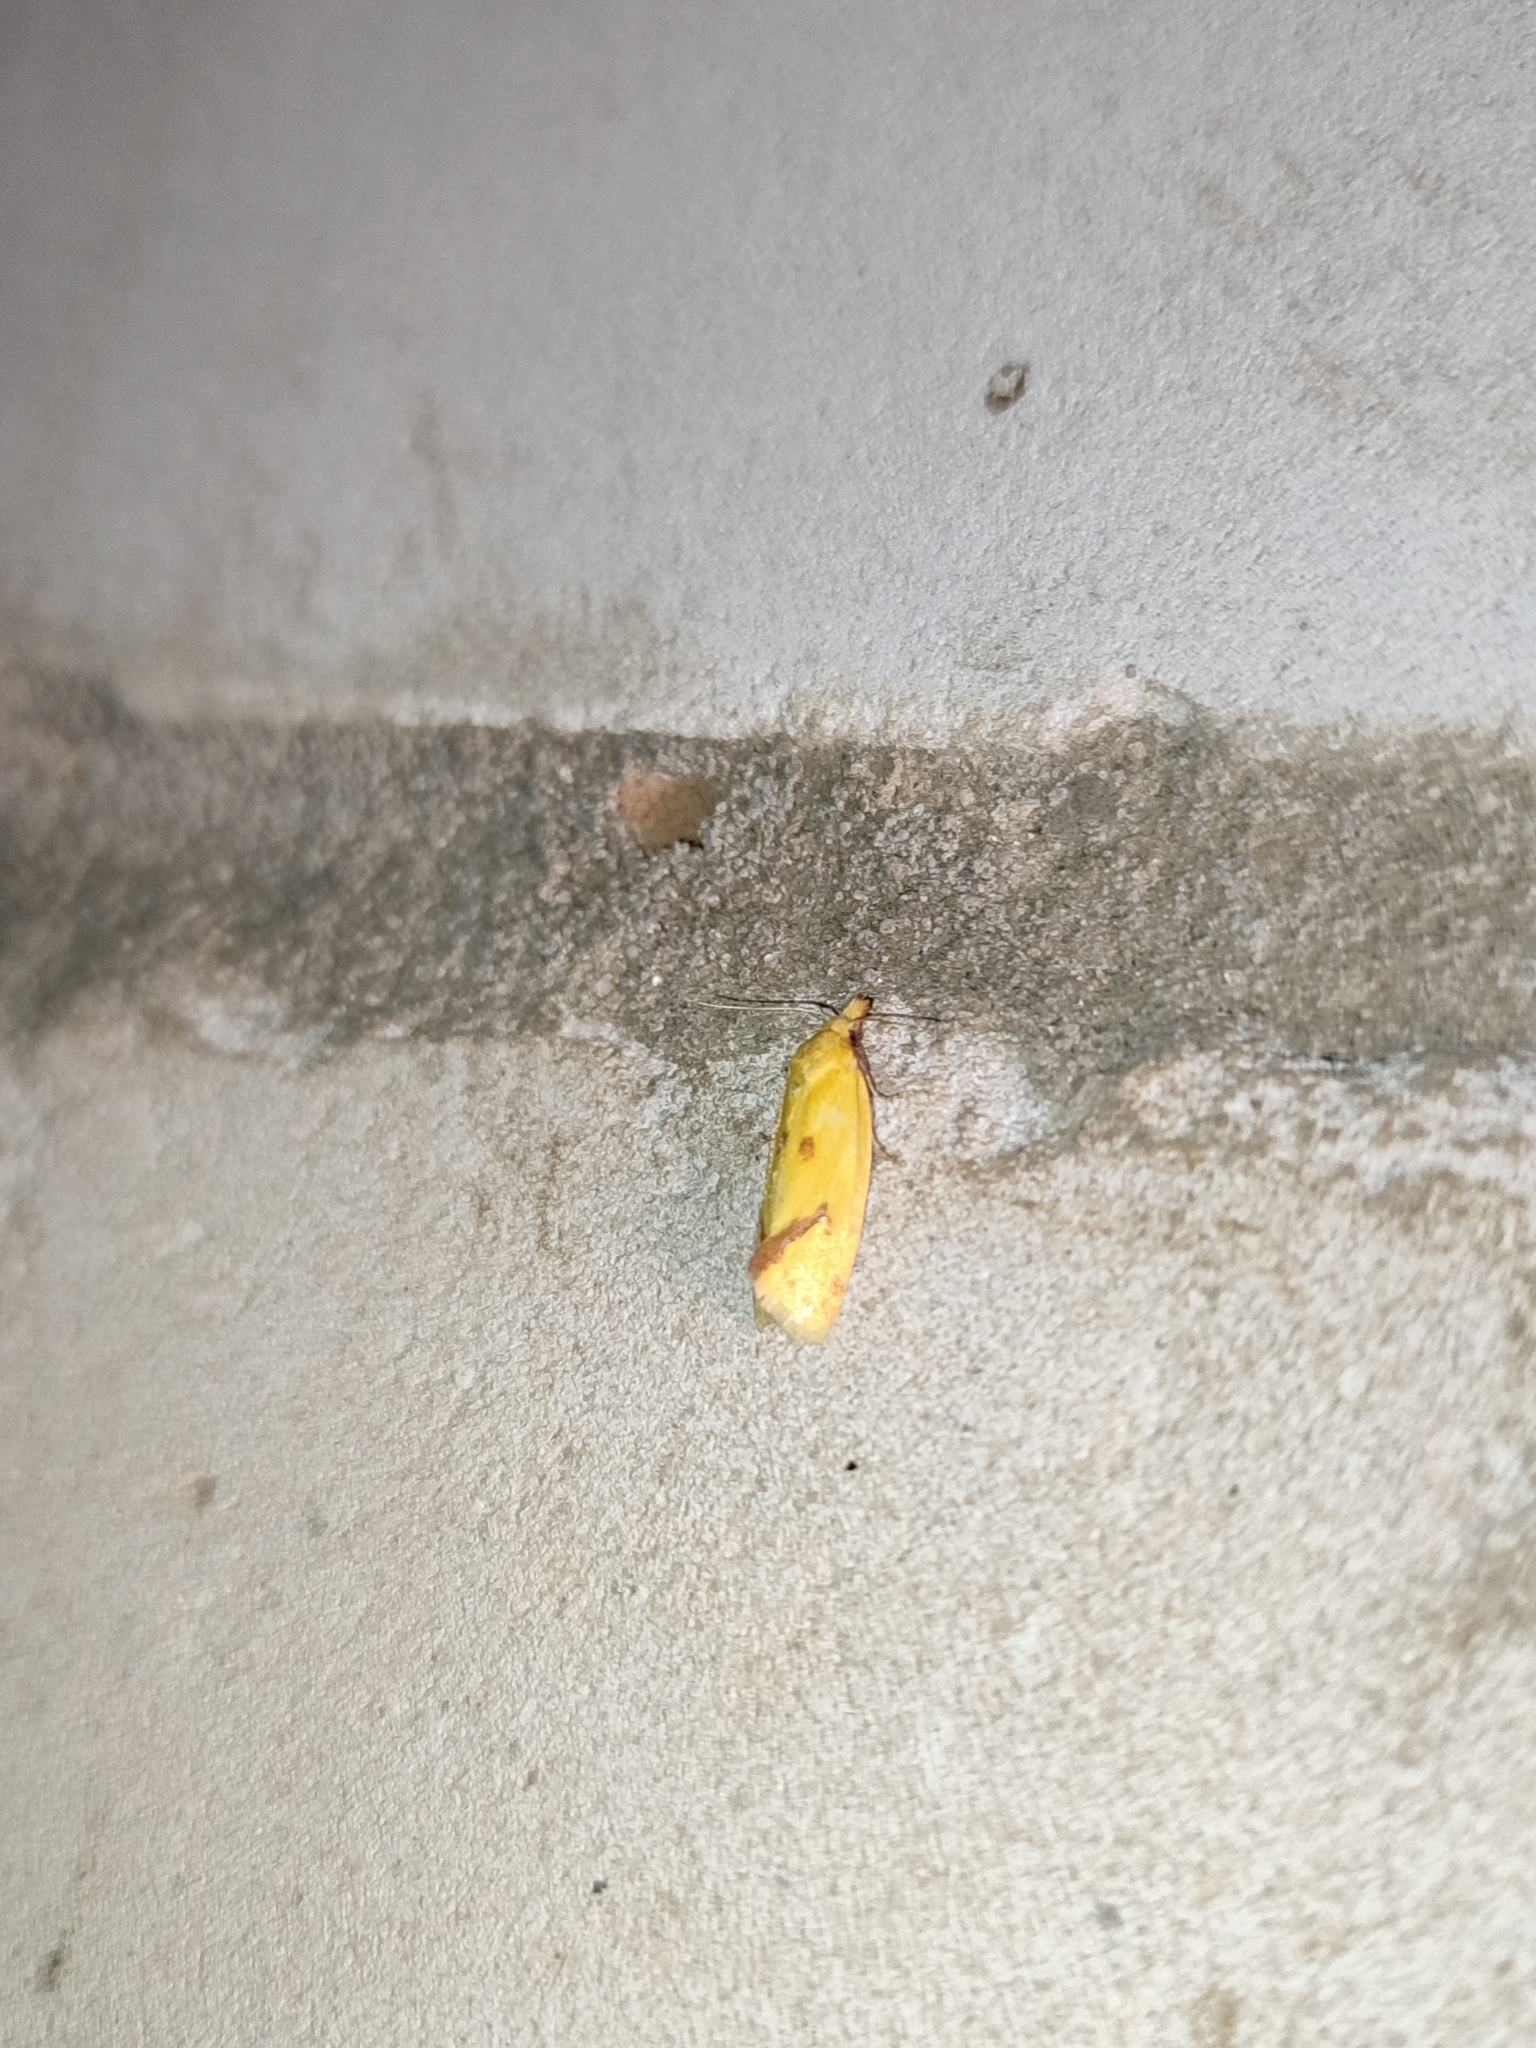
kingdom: Animalia
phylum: Arthropoda
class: Insecta
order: Lepidoptera
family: Tortricidae
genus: Agapeta
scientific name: Agapeta hamana
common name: Common yellow conch
